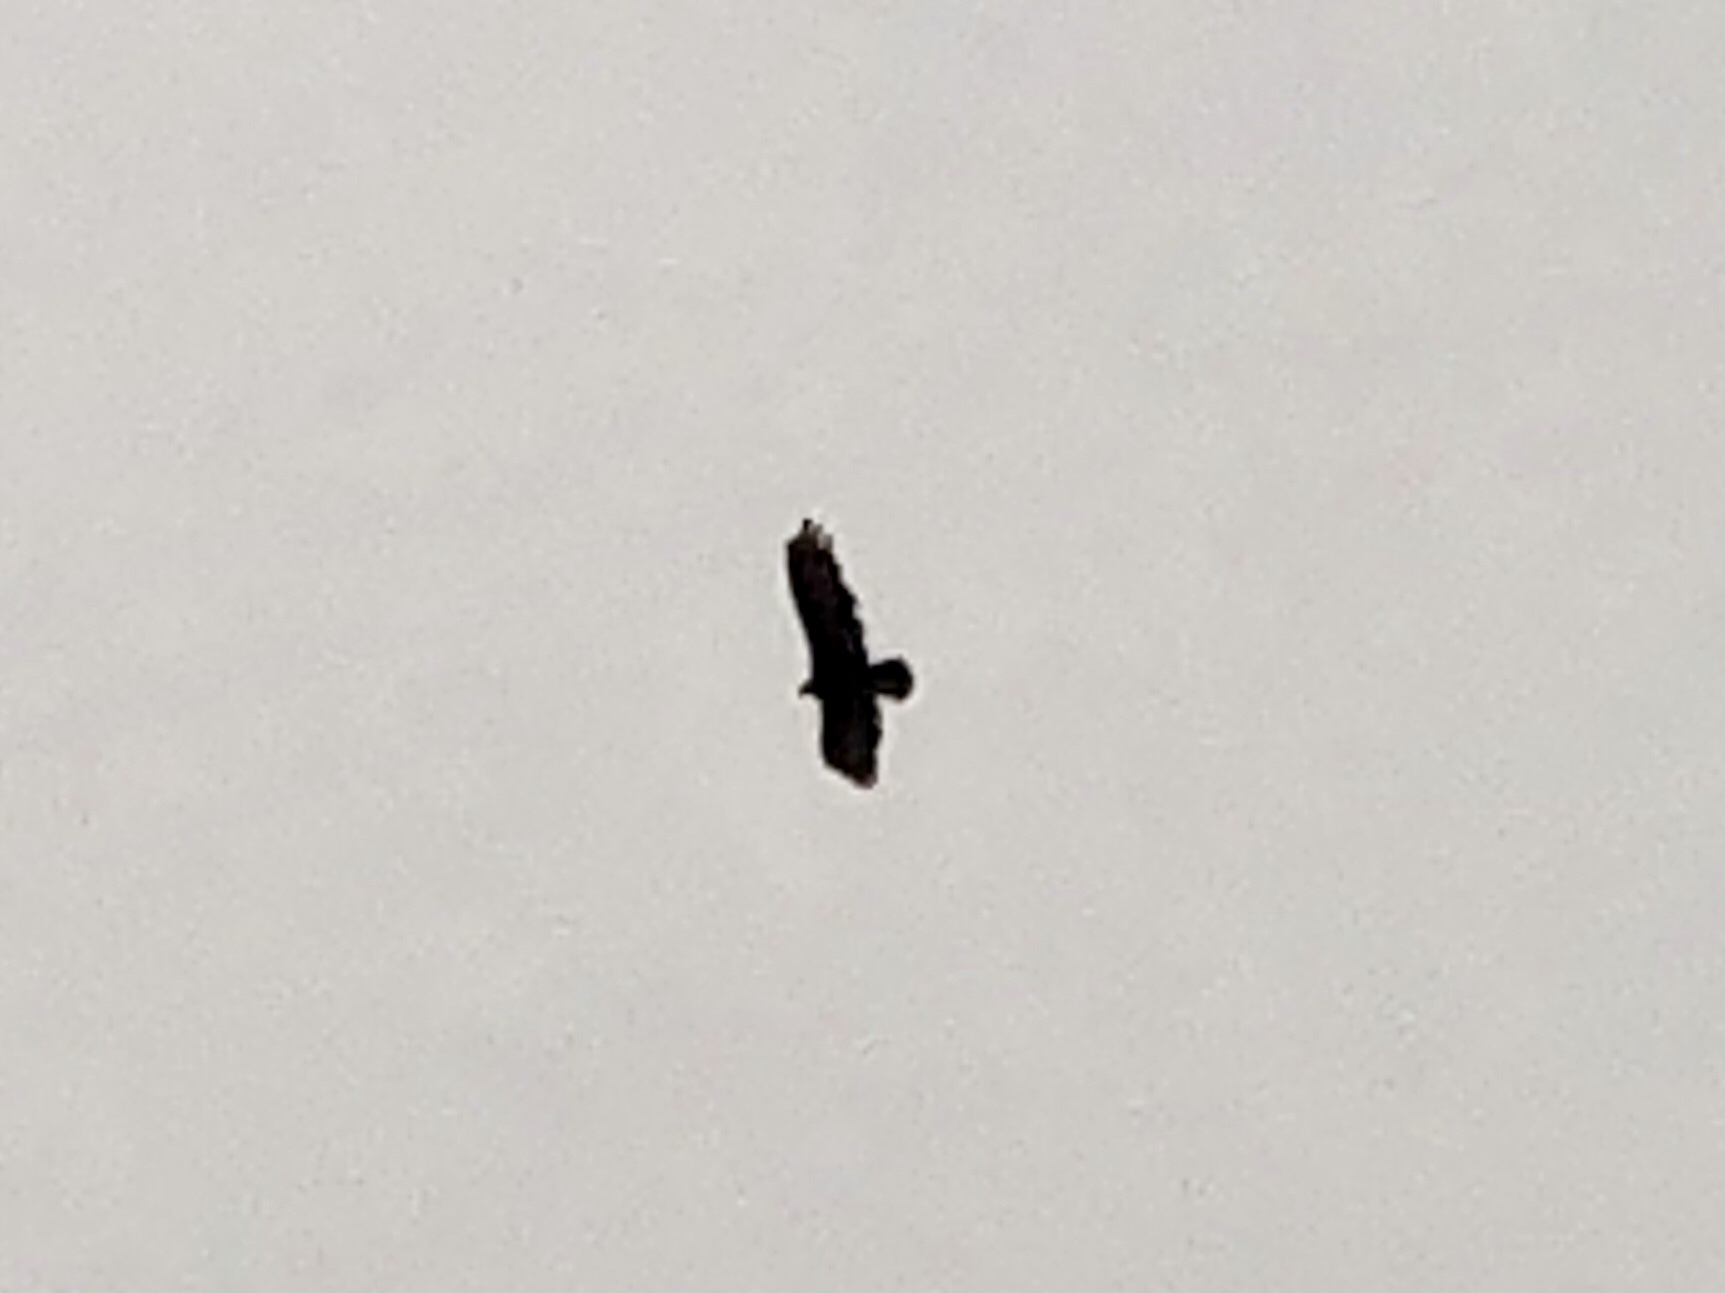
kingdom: Animalia
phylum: Chordata
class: Aves
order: Accipitriformes
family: Cathartidae
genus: Cathartes
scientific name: Cathartes aura
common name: Turkey vulture
